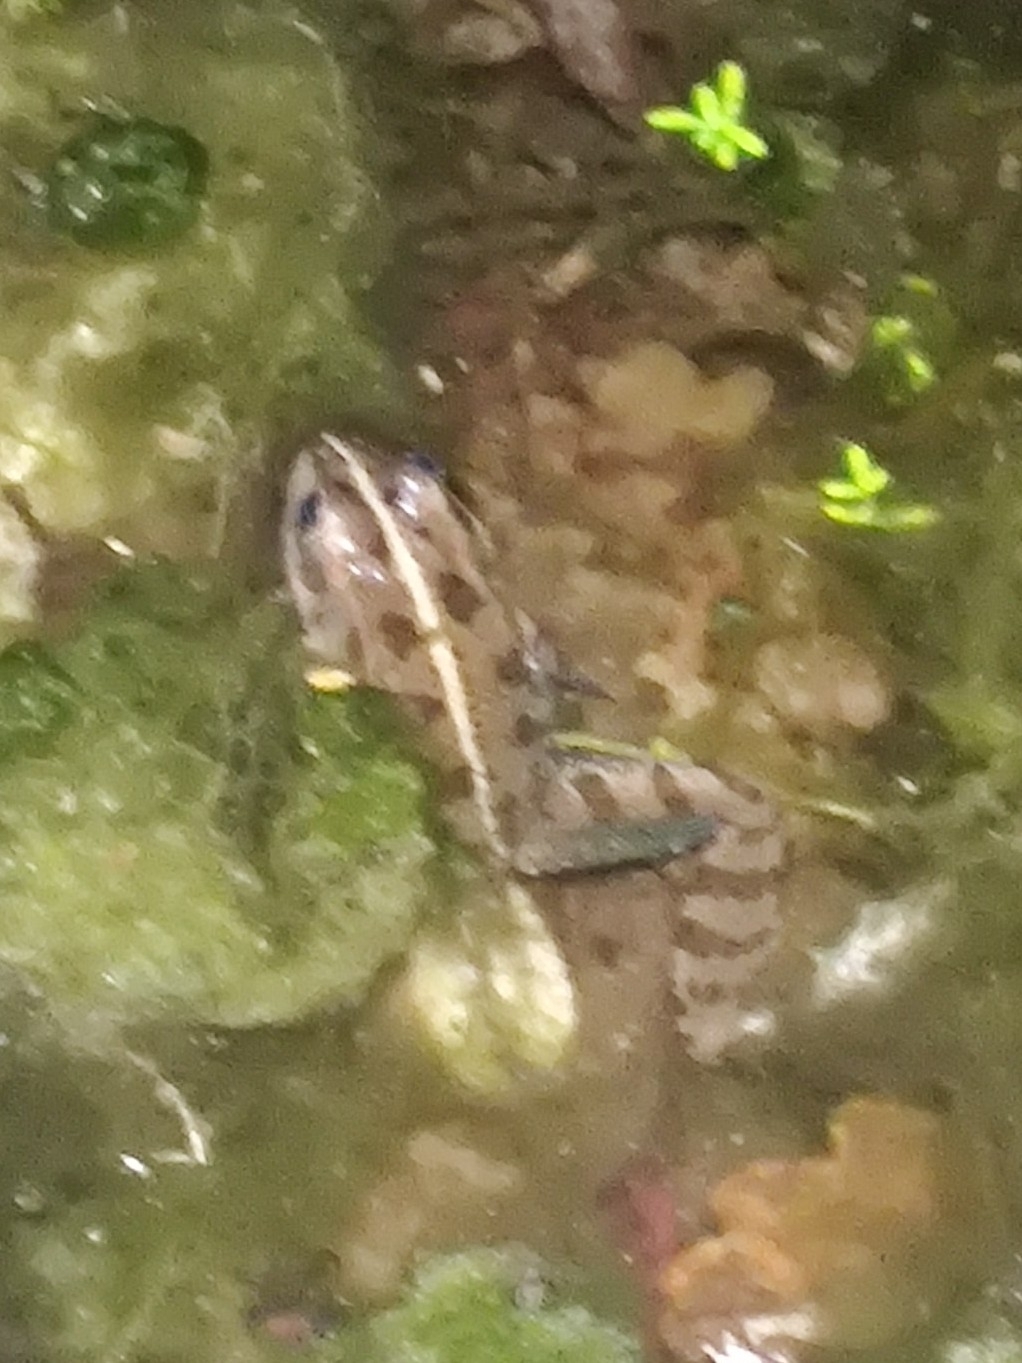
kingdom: Animalia
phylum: Chordata
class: Amphibia
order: Anura
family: Ranidae
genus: Pelophylax
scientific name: Pelophylax perezi
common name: Perez's frog
